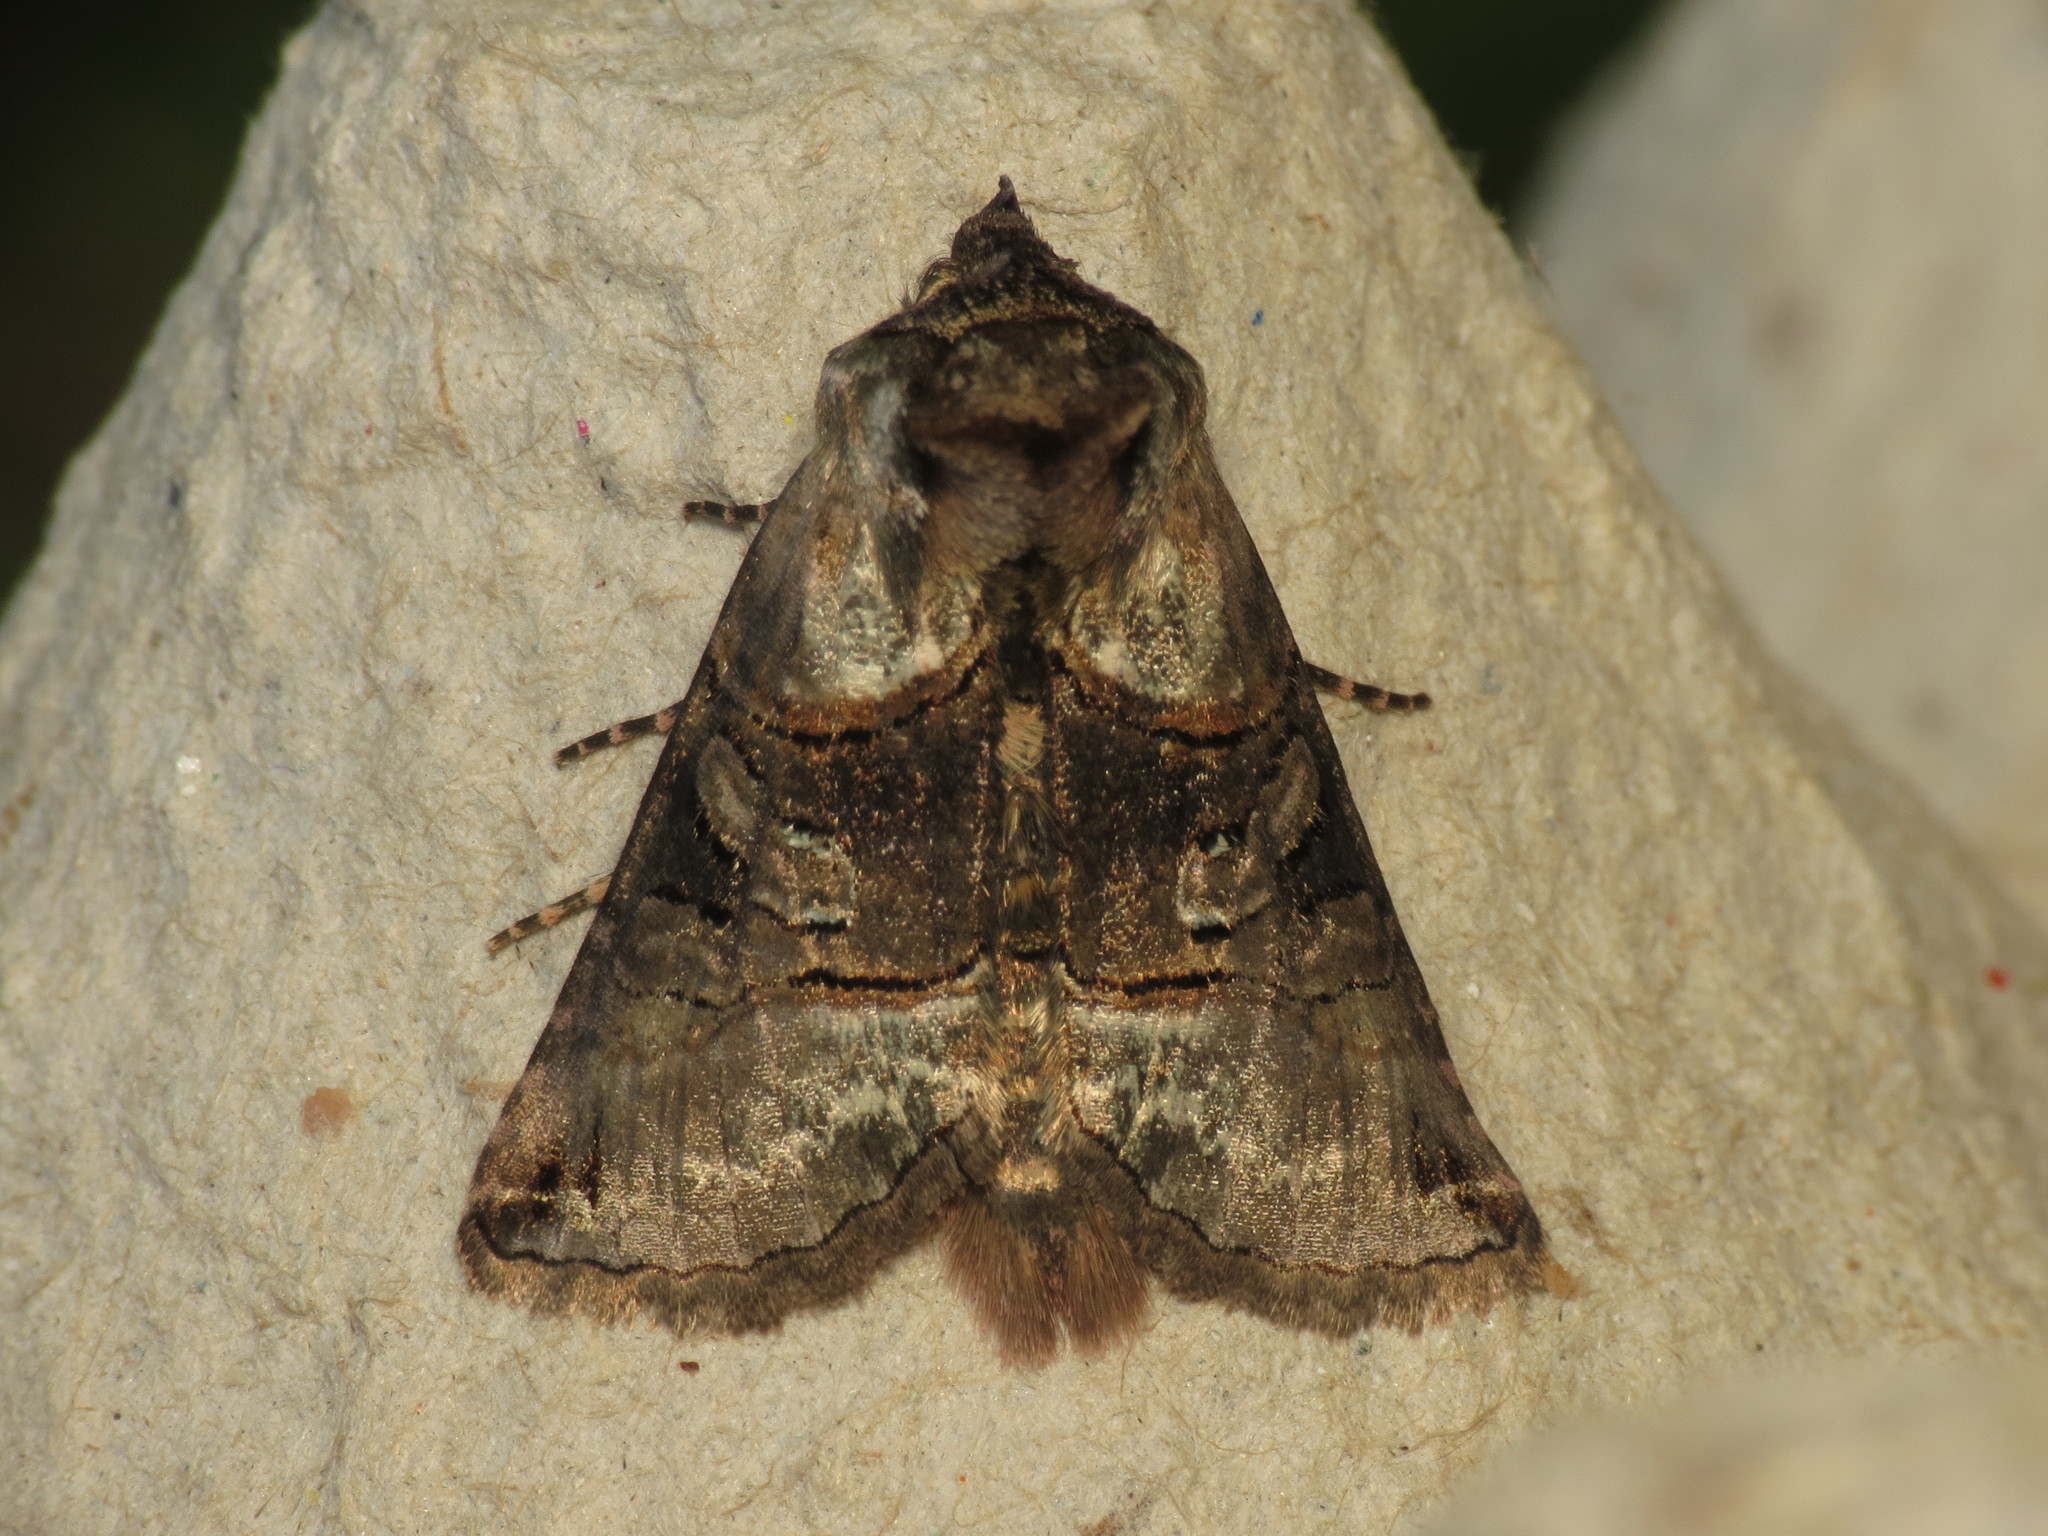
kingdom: Animalia
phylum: Arthropoda
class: Insecta
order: Lepidoptera
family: Noctuidae
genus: Abrostola
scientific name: Abrostola tripartita
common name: Spectacle
